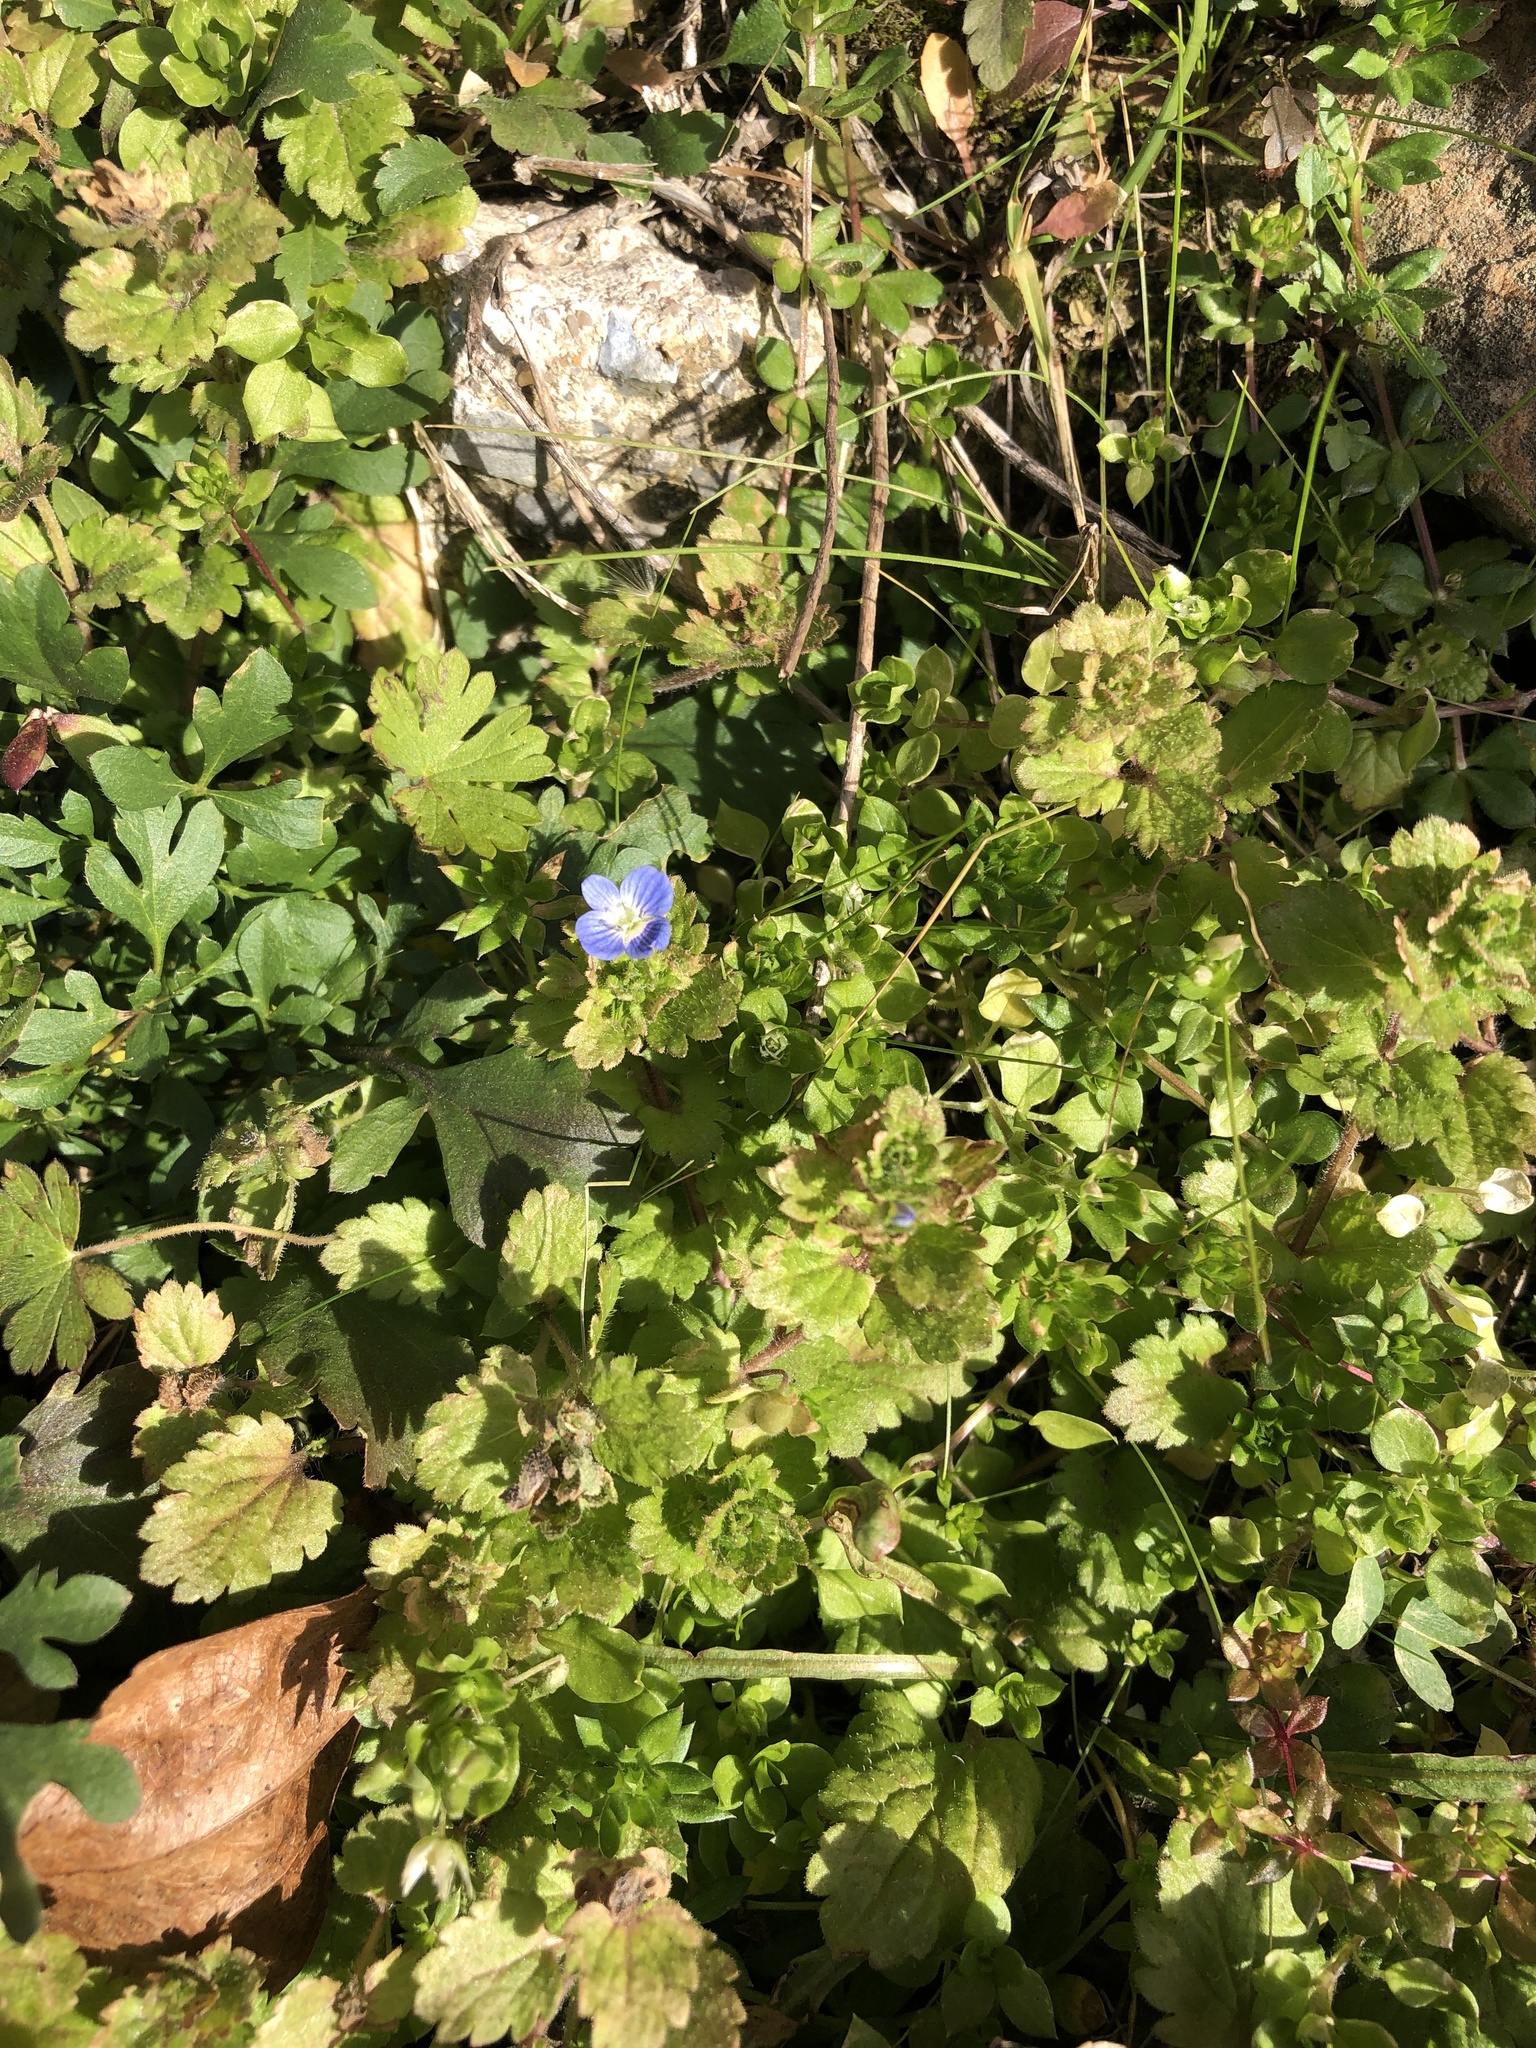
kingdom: Plantae
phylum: Tracheophyta
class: Magnoliopsida
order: Lamiales
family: Plantaginaceae
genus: Veronica
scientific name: Veronica persica
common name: Common field-speedwell
